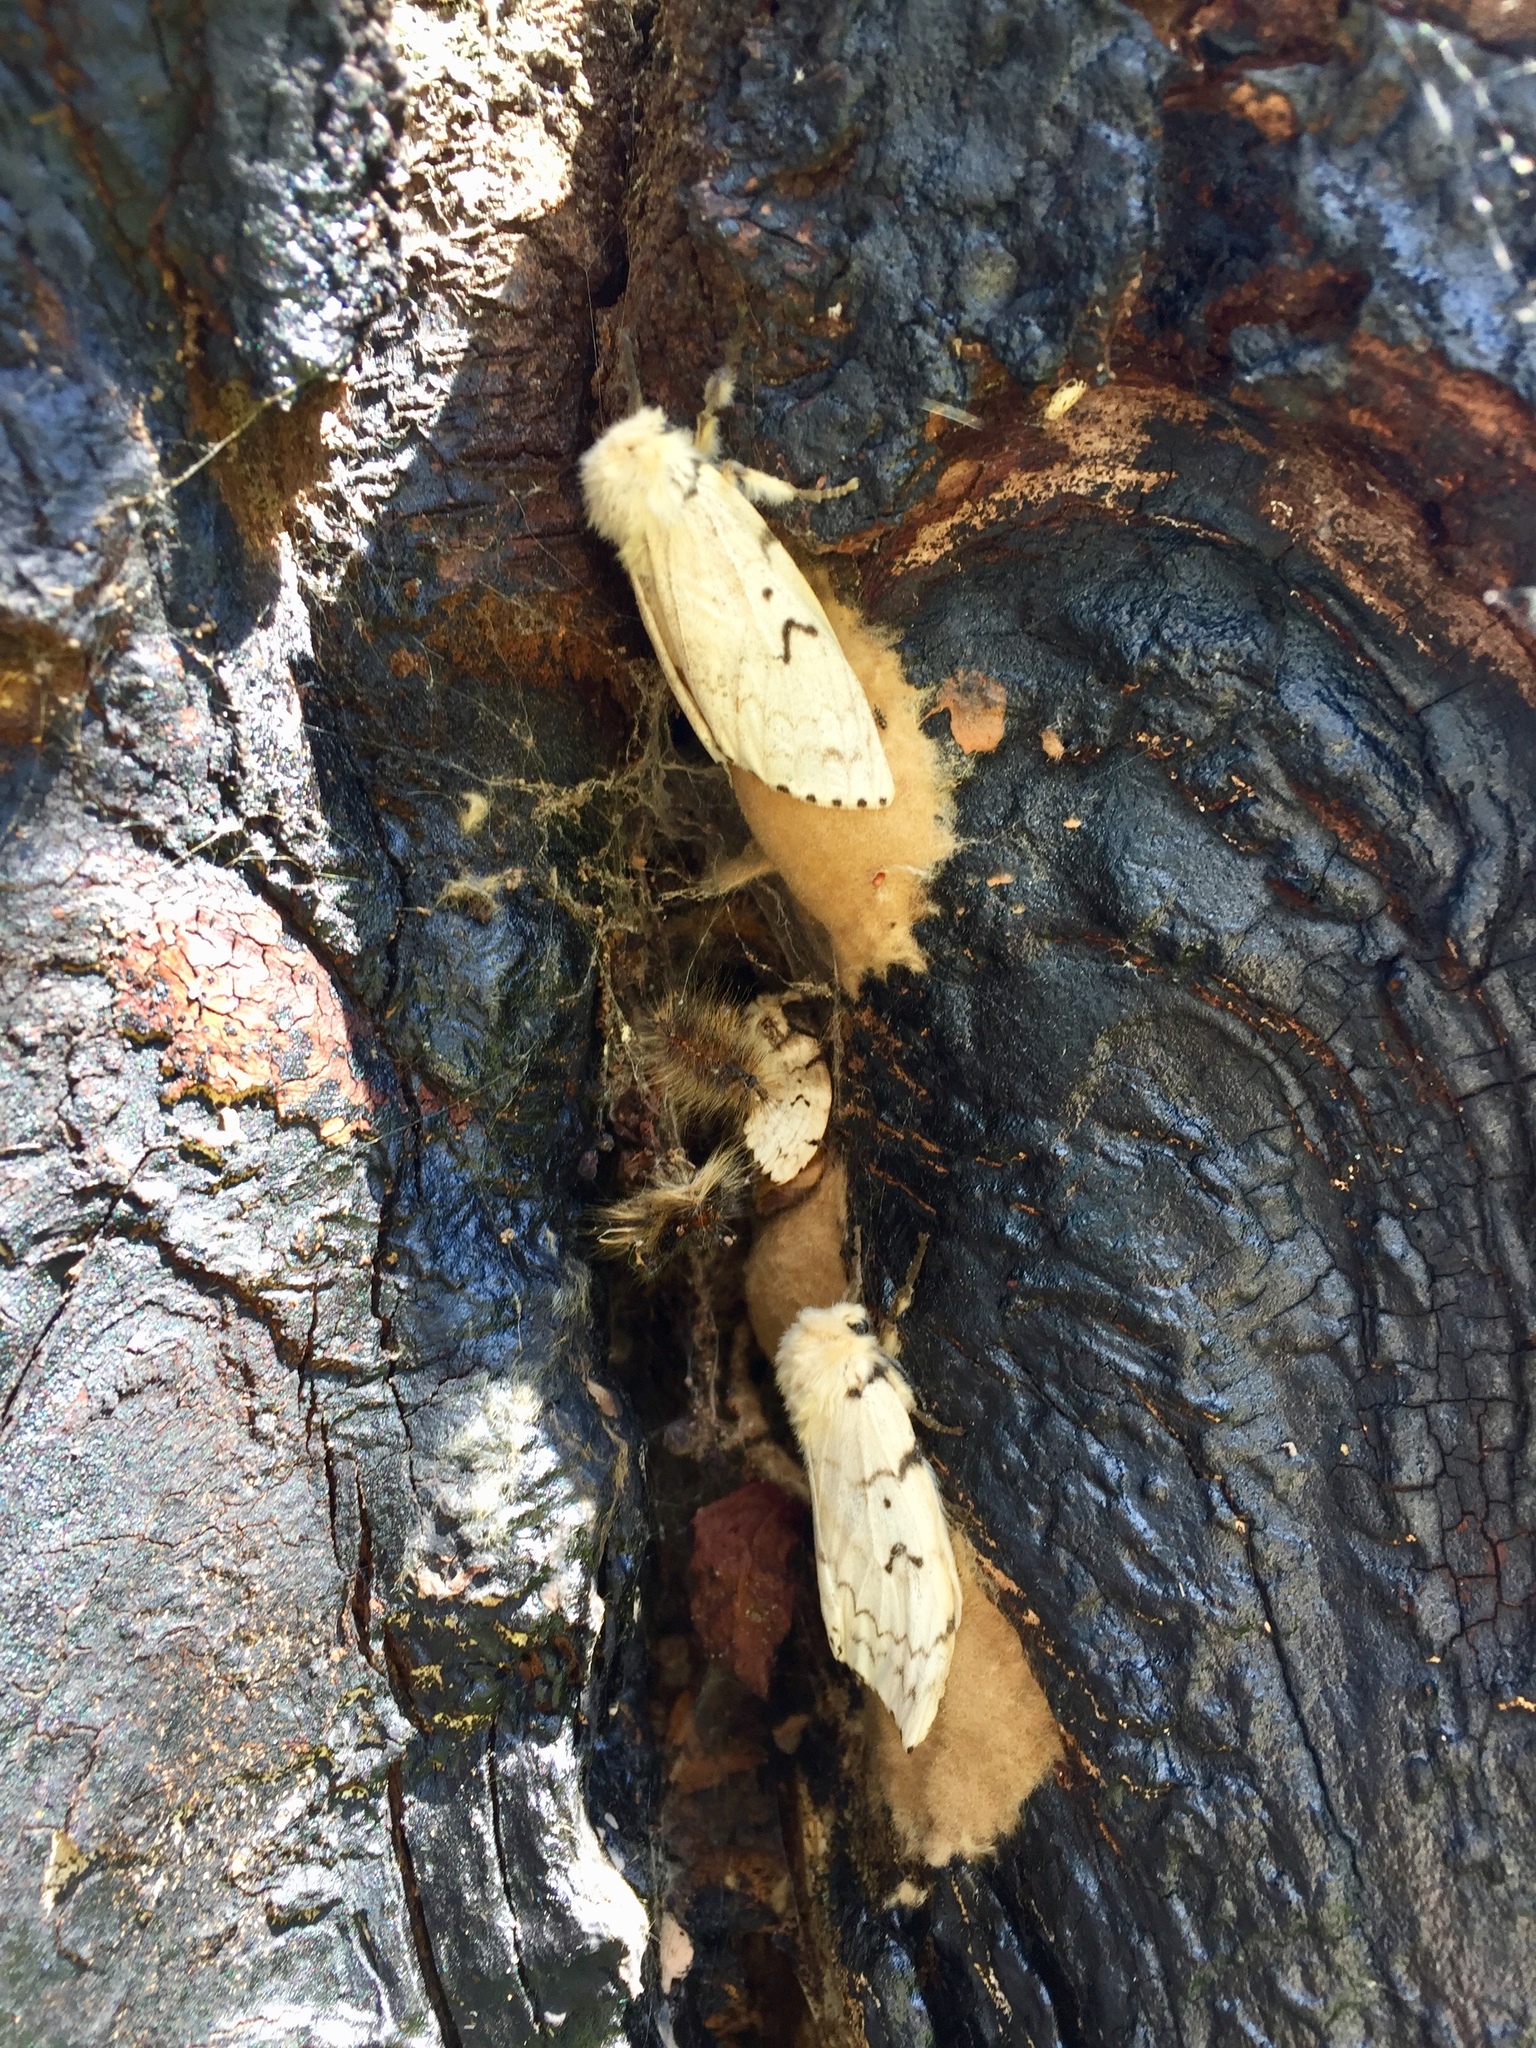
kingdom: Animalia
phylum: Arthropoda
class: Insecta
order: Lepidoptera
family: Erebidae
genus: Lymantria
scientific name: Lymantria dispar
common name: Gypsy moth
